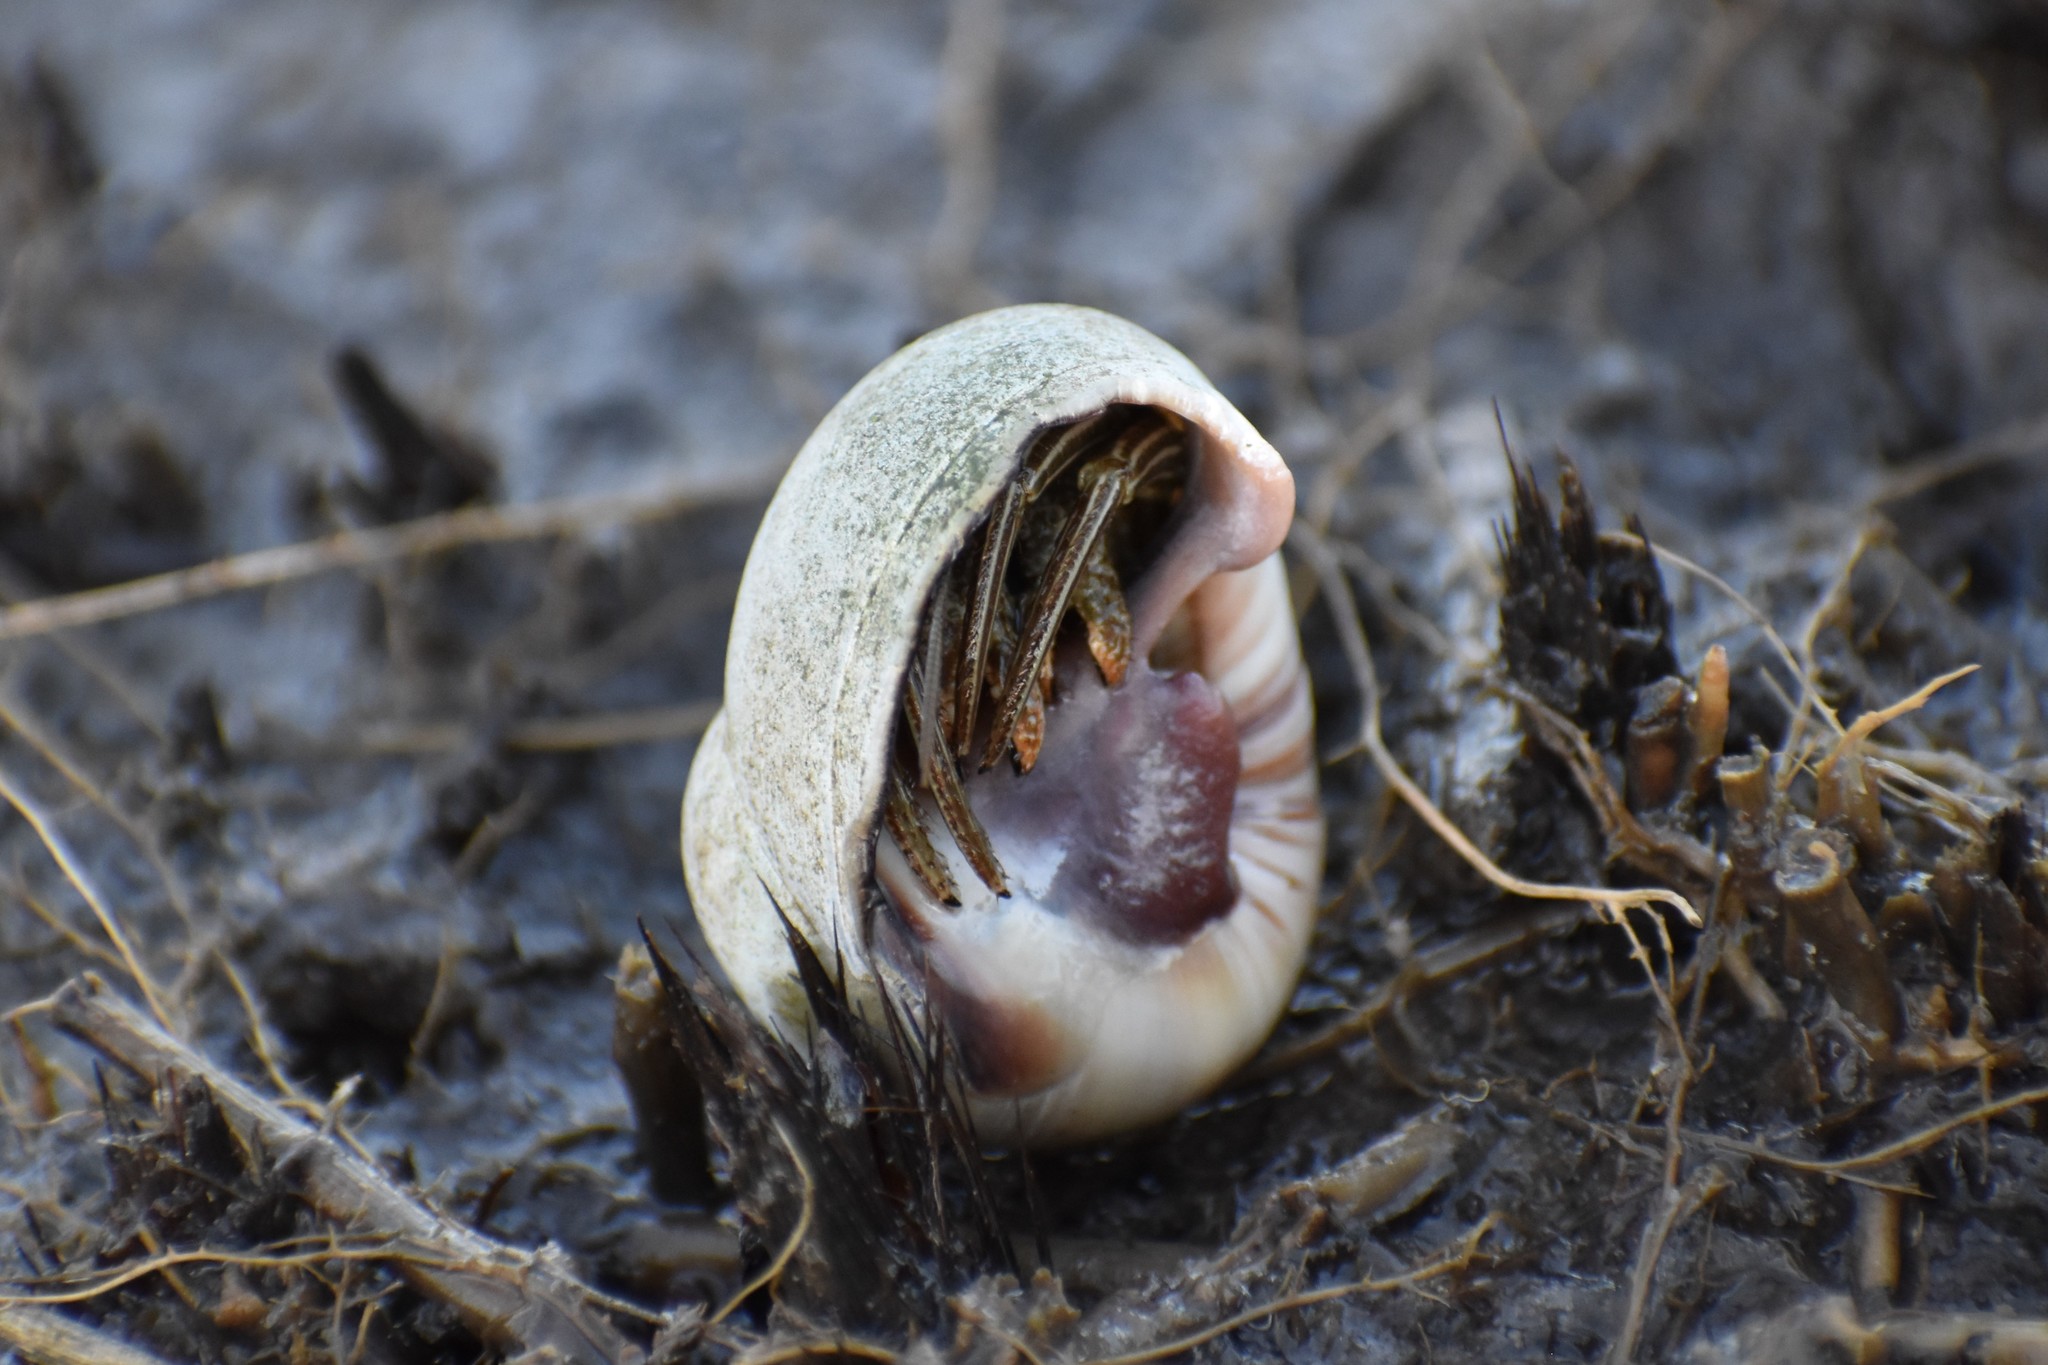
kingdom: Animalia
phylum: Arthropoda
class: Malacostraca
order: Decapoda
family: Diogenidae
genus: Clibanarius
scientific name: Clibanarius vittatus
